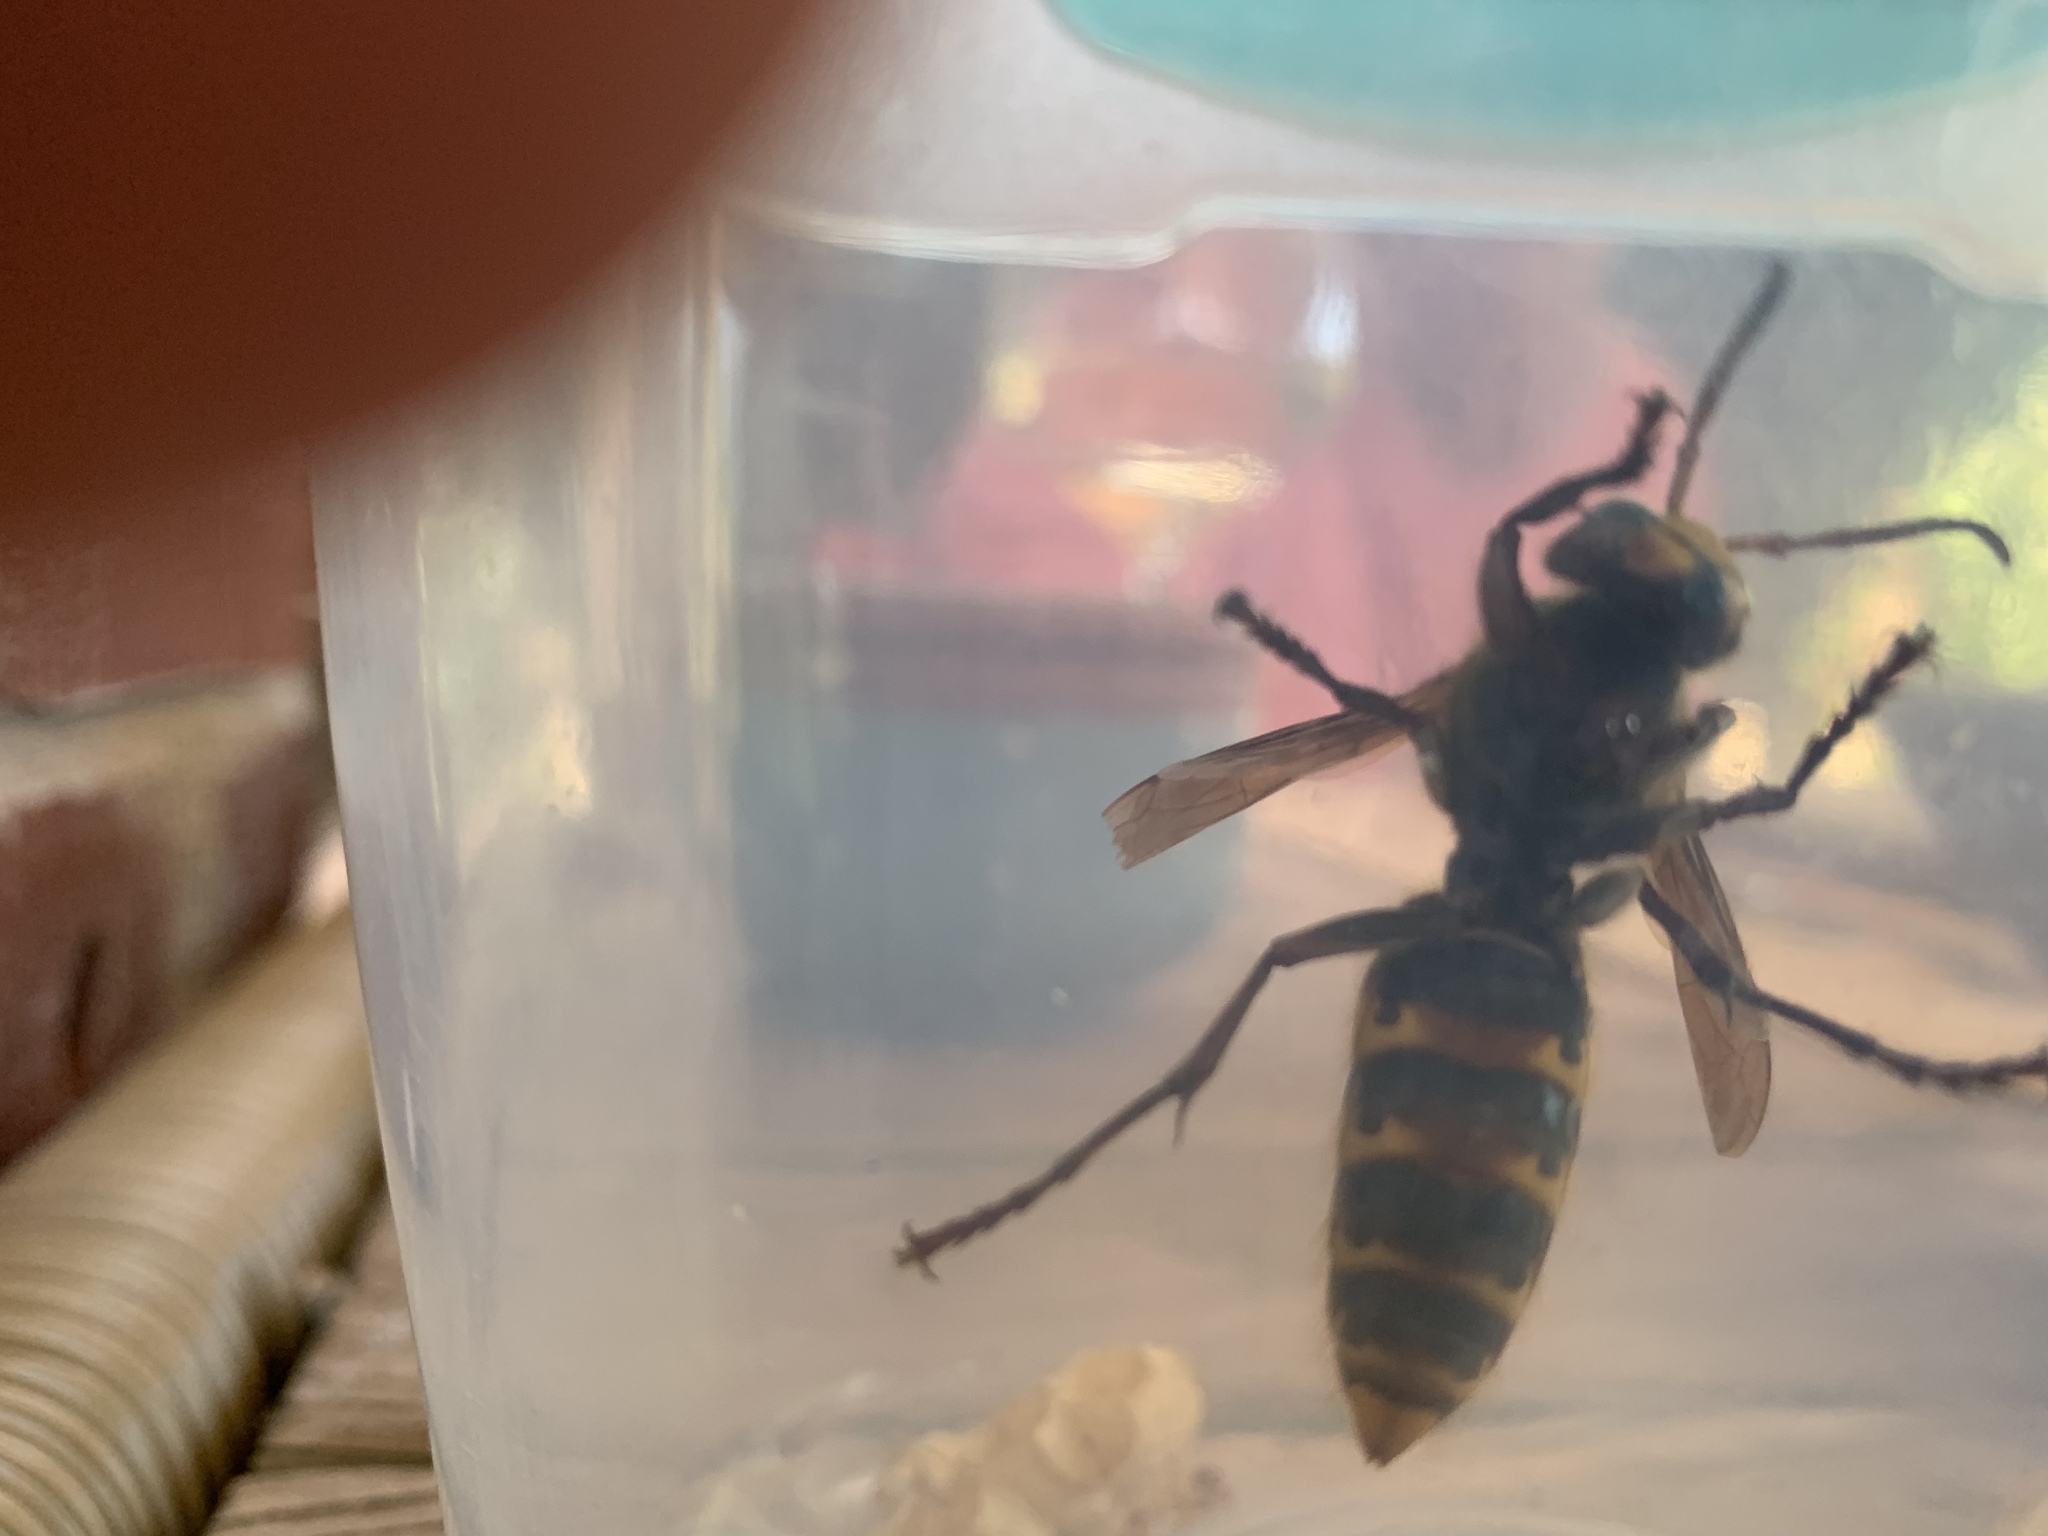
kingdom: Animalia
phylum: Arthropoda
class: Insecta
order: Hymenoptera
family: Vespidae
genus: Vespa
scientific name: Vespa crabro
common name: Hornet
